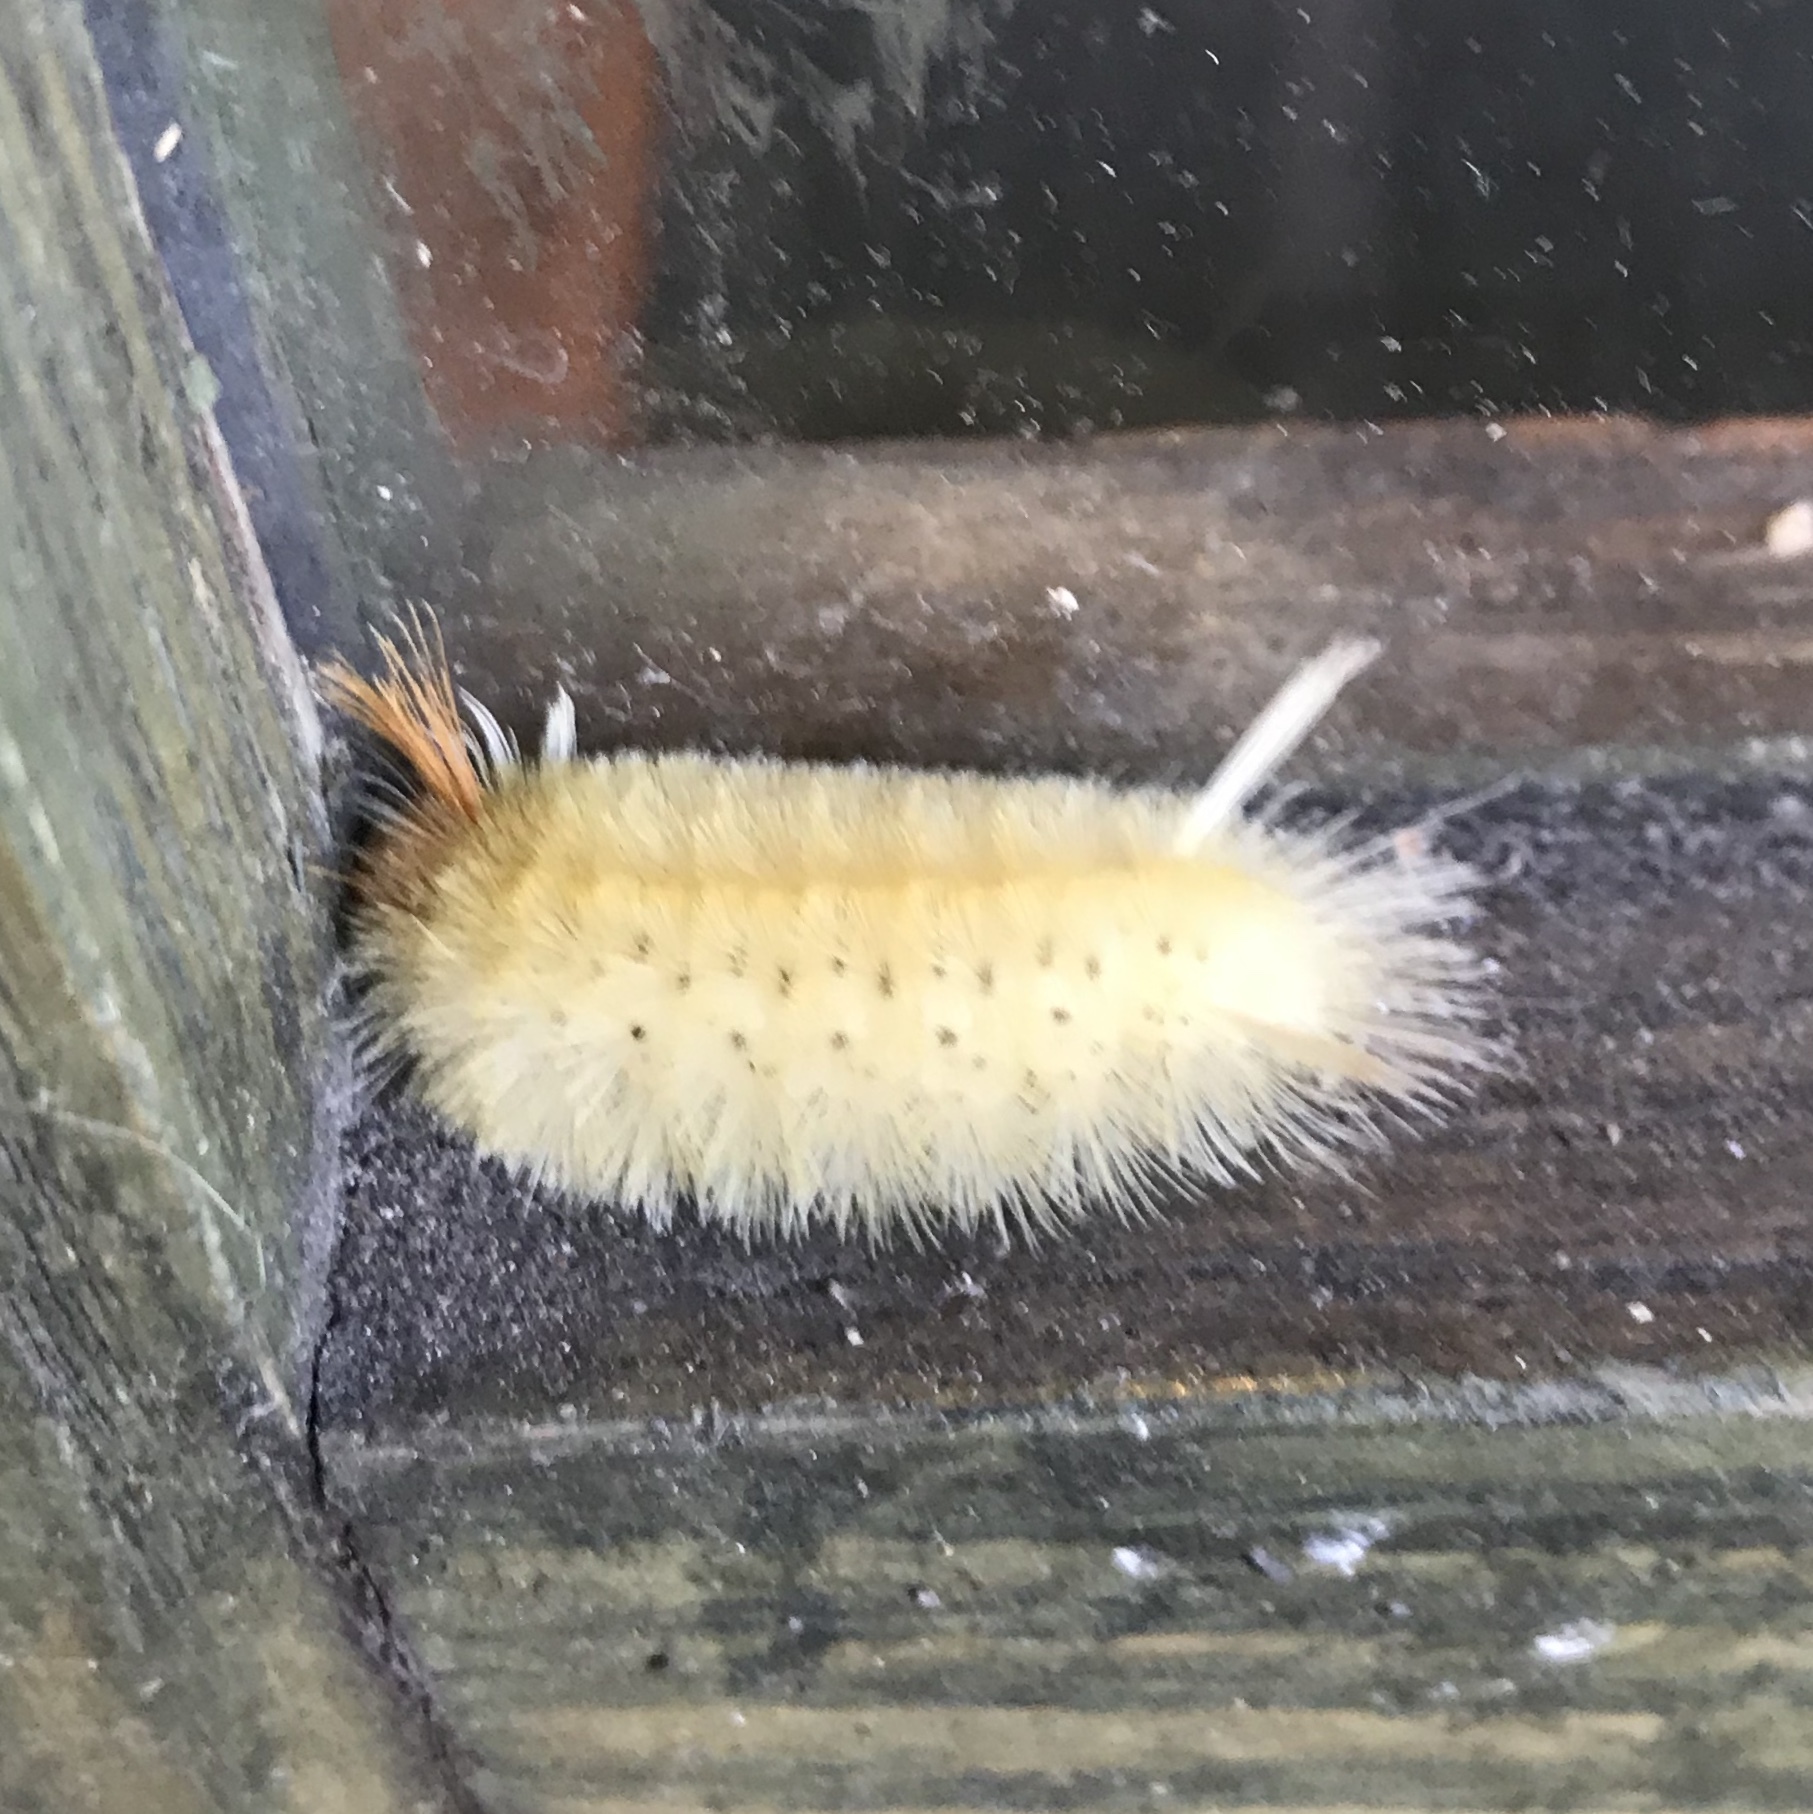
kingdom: Animalia
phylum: Arthropoda
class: Insecta
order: Lepidoptera
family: Erebidae
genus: Halysidota
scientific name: Halysidota harrisii
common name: Sycamore tussock moth
